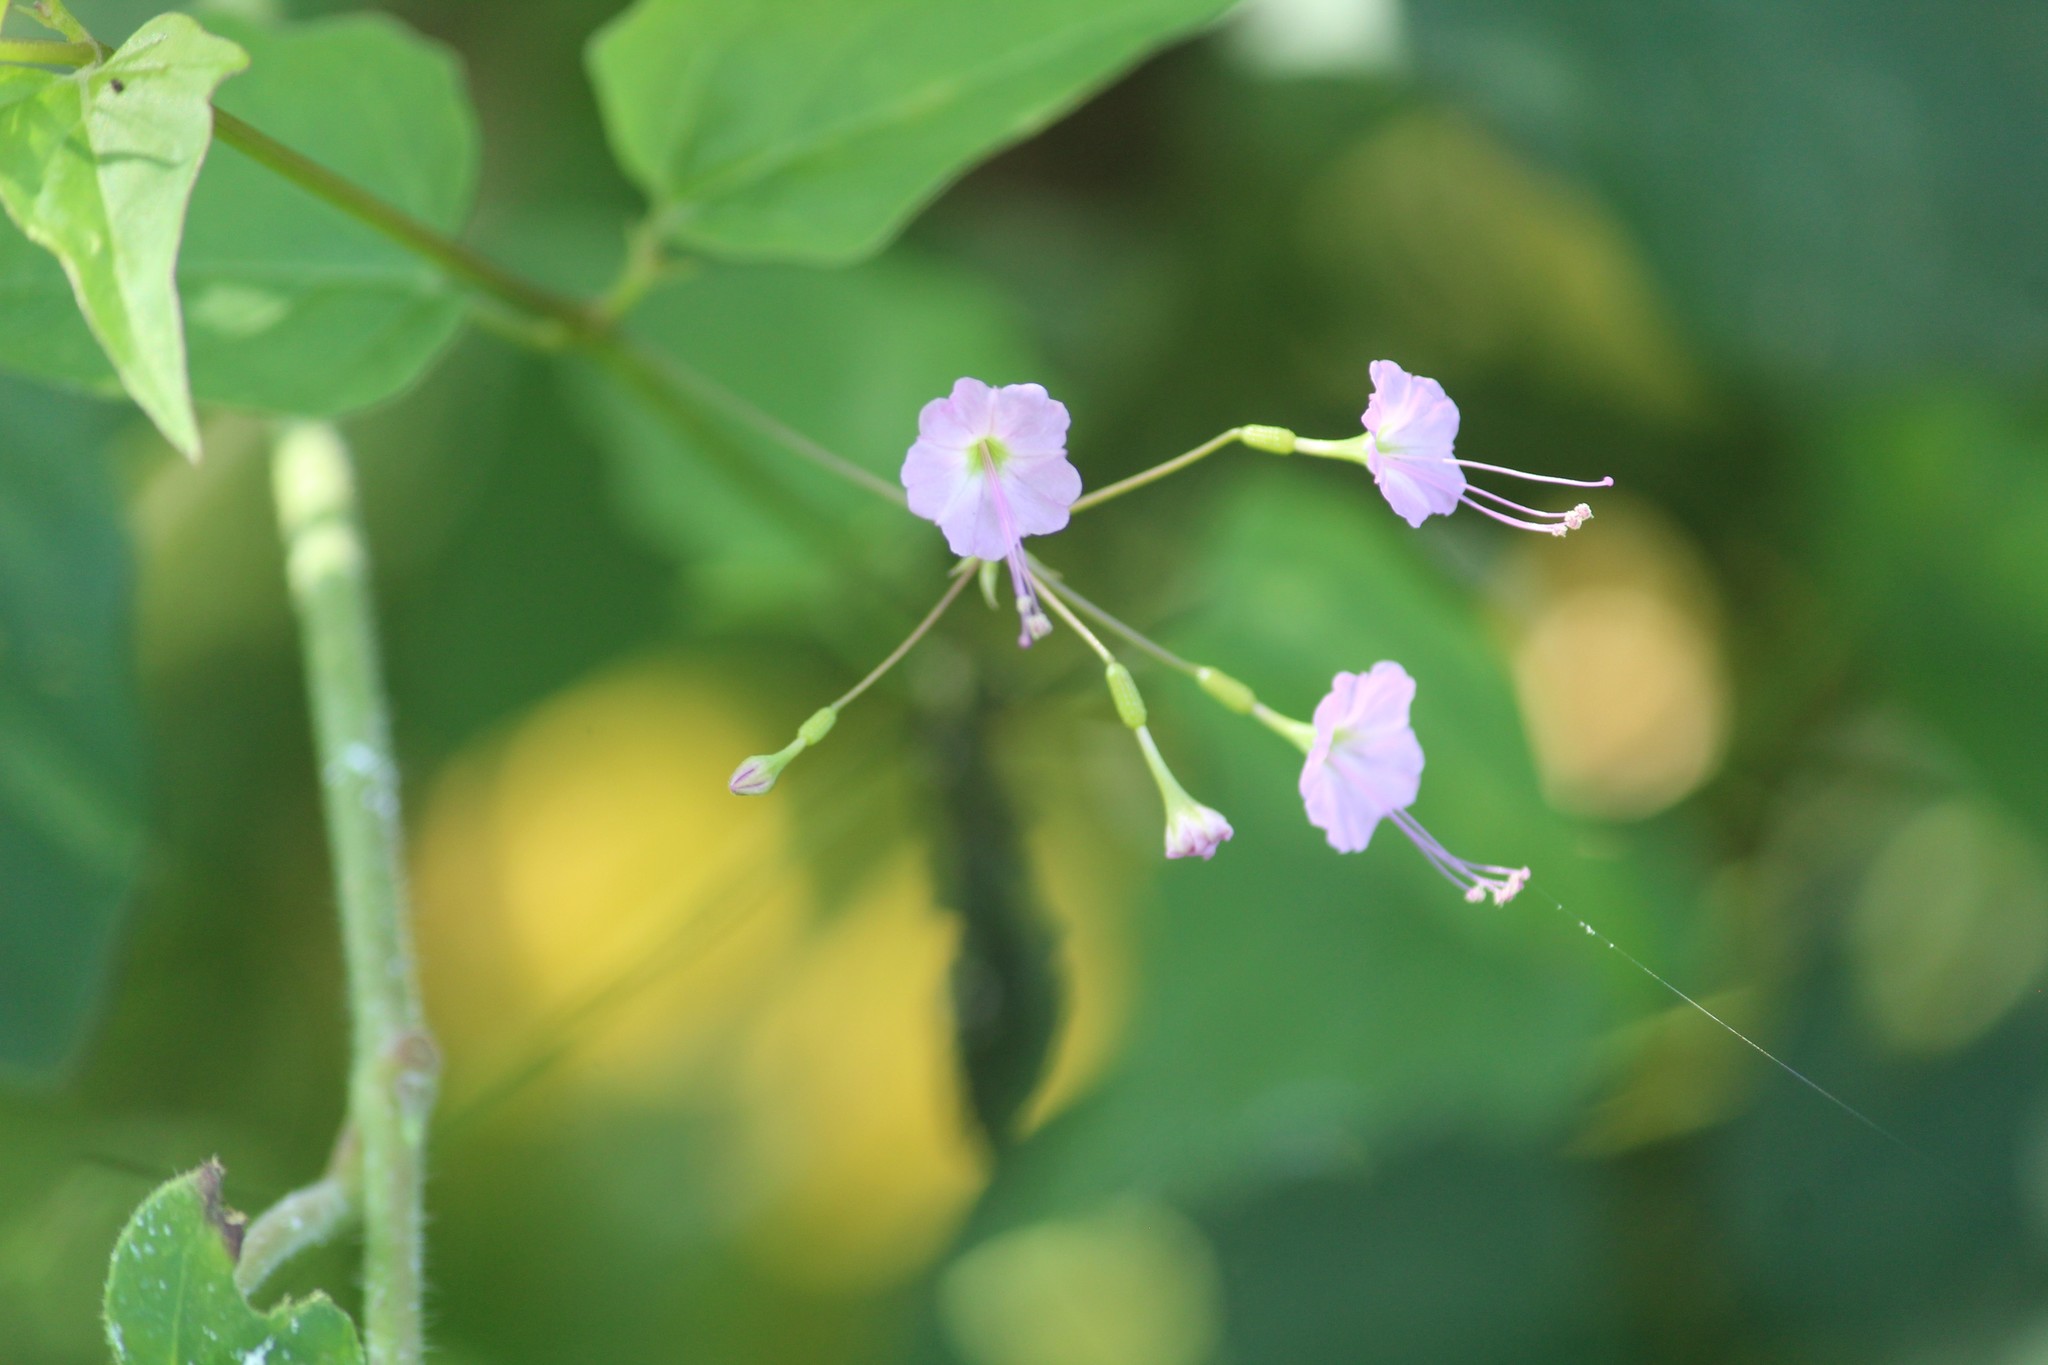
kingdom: Plantae
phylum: Tracheophyta
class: Magnoliopsida
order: Caryophyllales
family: Nyctaginaceae
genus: Commicarpus
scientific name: Commicarpus chinensis
